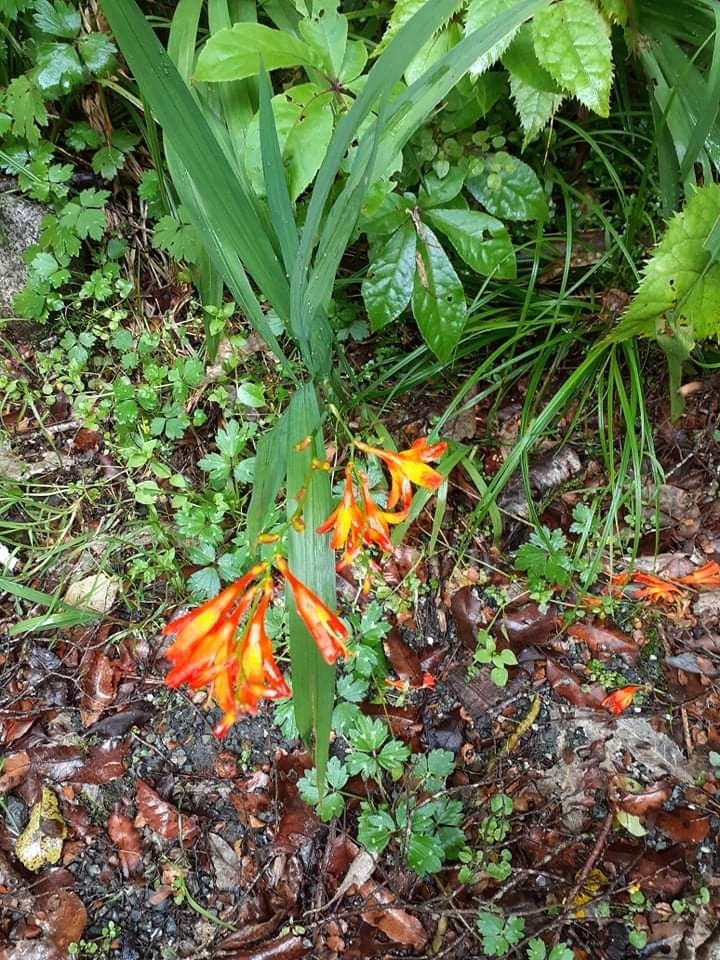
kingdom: Plantae
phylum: Tracheophyta
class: Liliopsida
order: Asparagales
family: Iridaceae
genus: Crocosmia
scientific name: Crocosmia crocosmiiflora
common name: Montbretia
